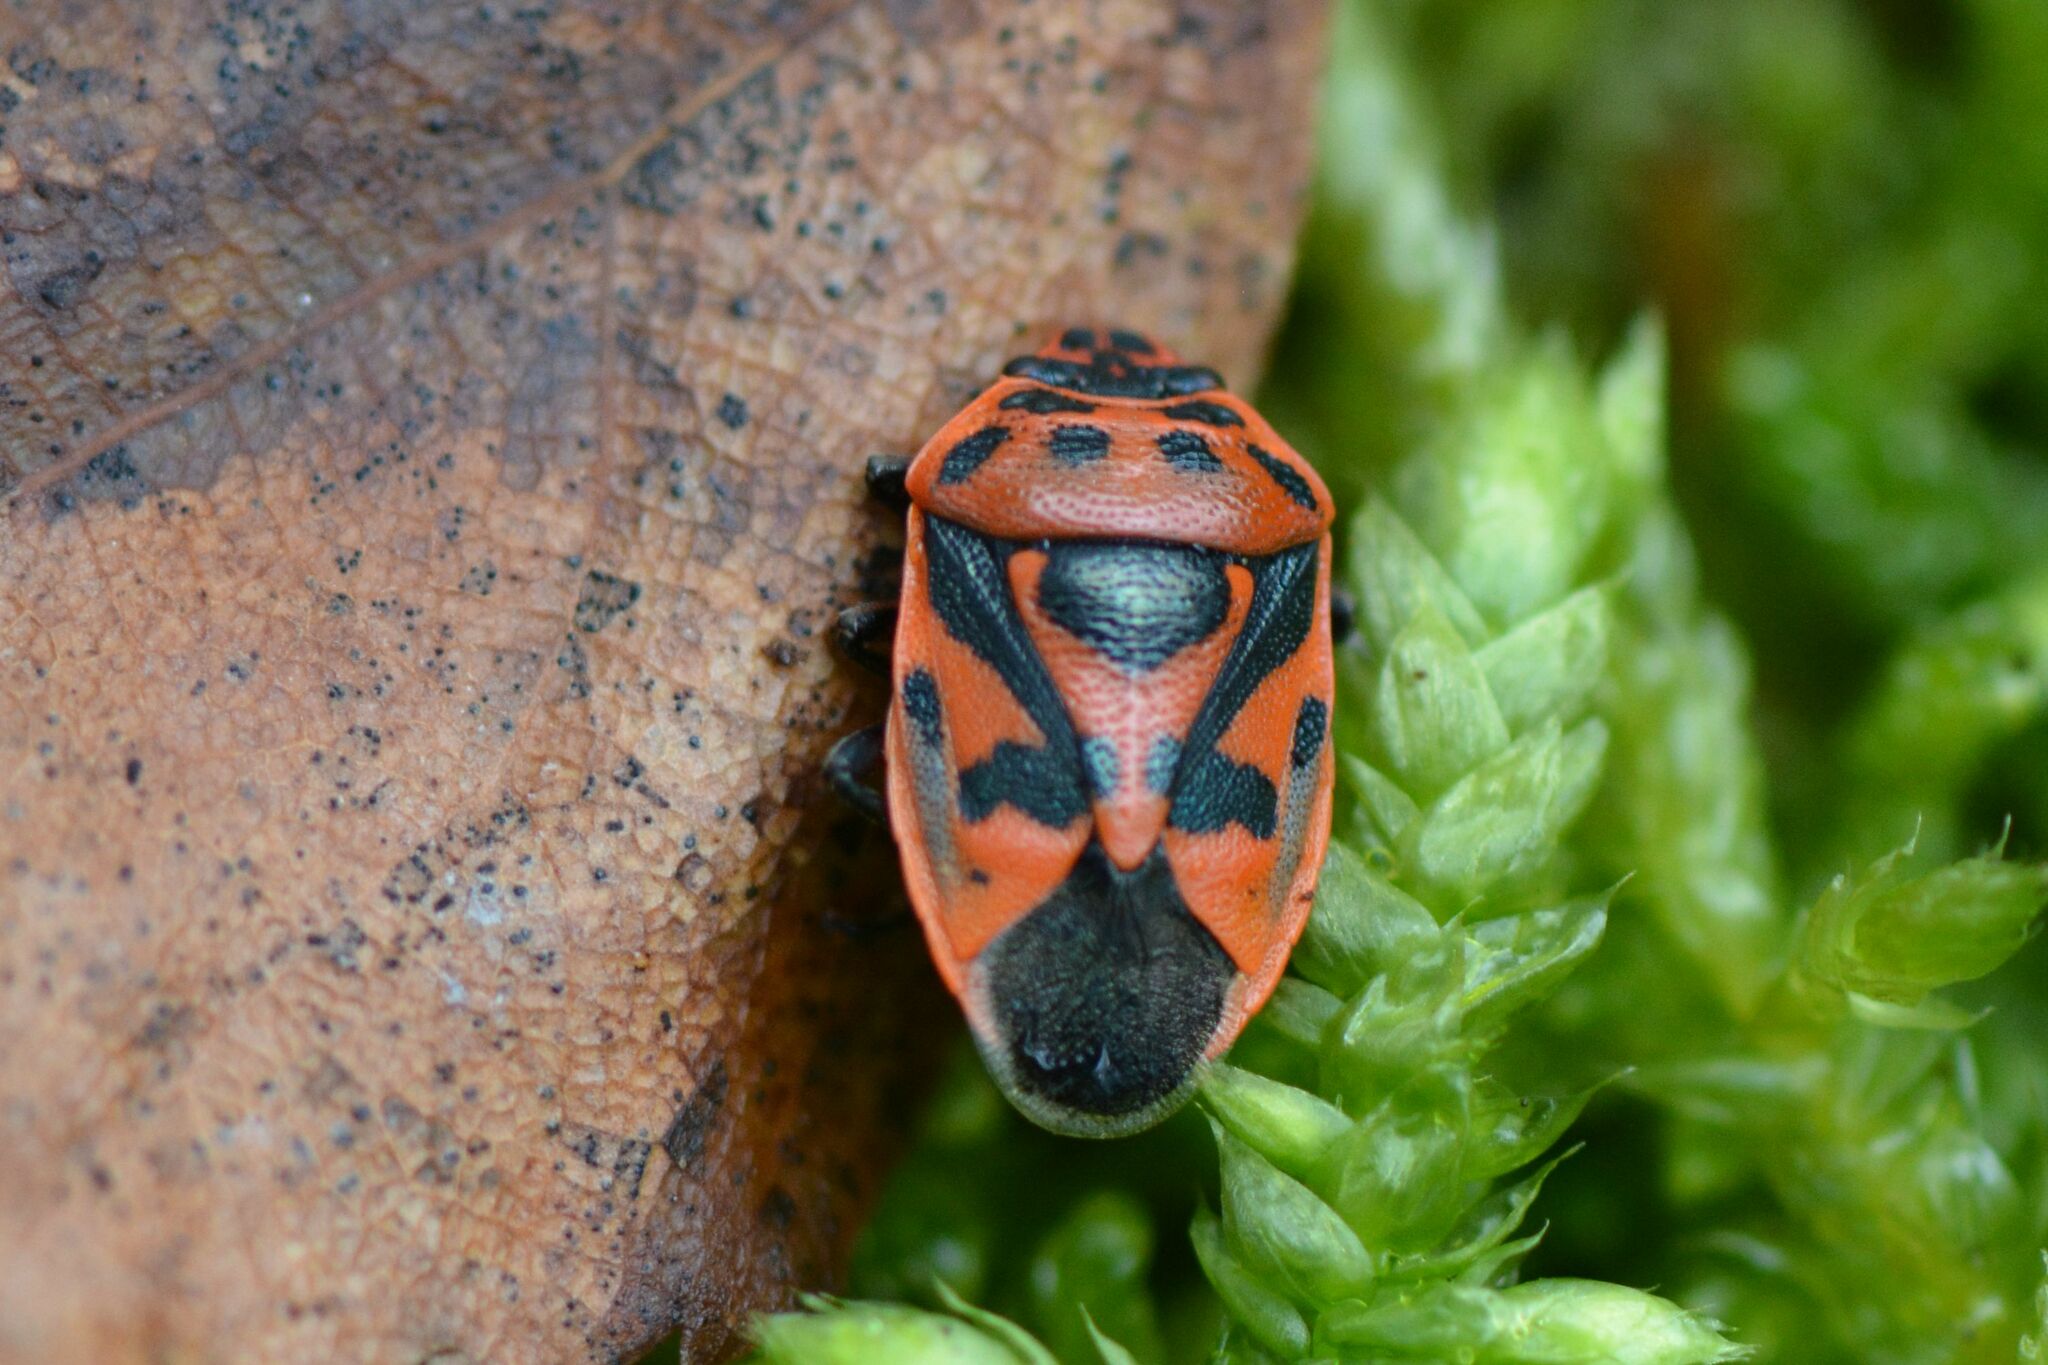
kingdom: Animalia
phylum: Arthropoda
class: Insecta
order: Hemiptera
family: Pentatomidae
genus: Eurydema
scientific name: Eurydema ornata
